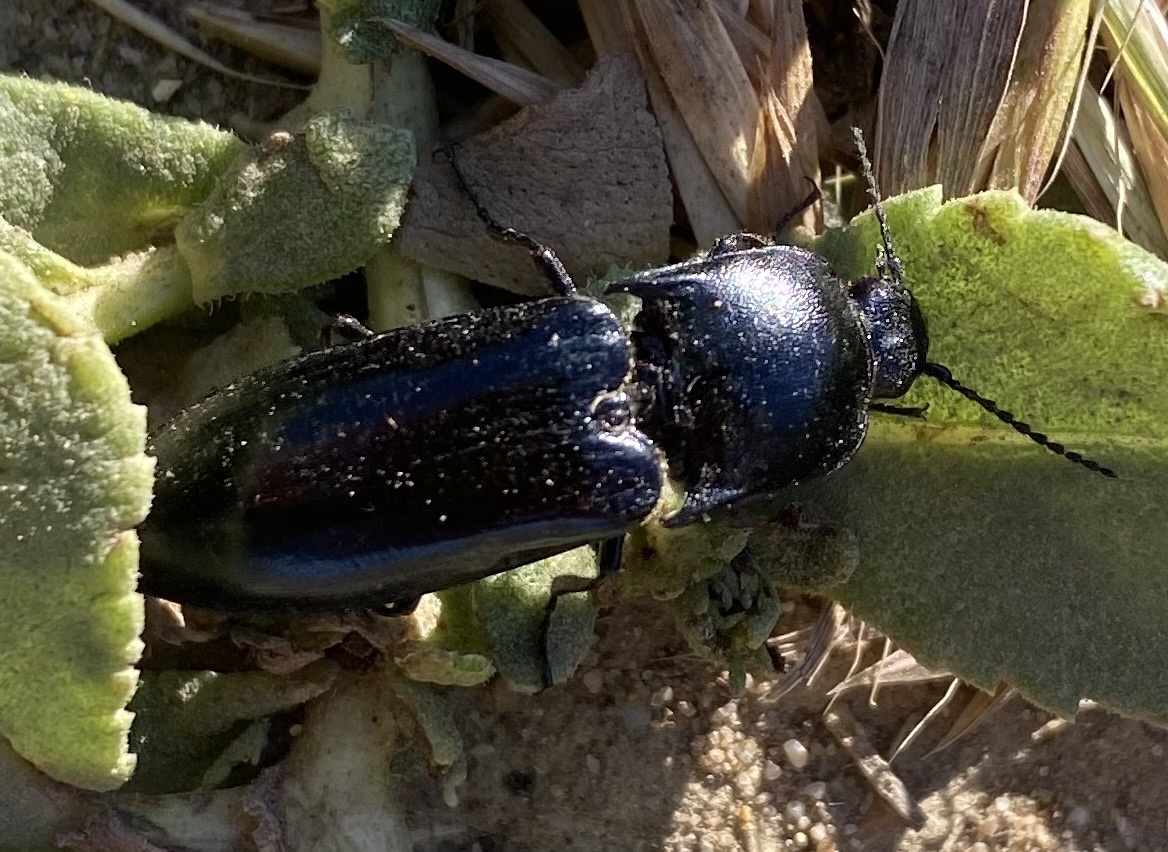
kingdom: Animalia
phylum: Arthropoda
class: Insecta
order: Coleoptera
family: Elateridae
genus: Melanactes
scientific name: Melanactes
